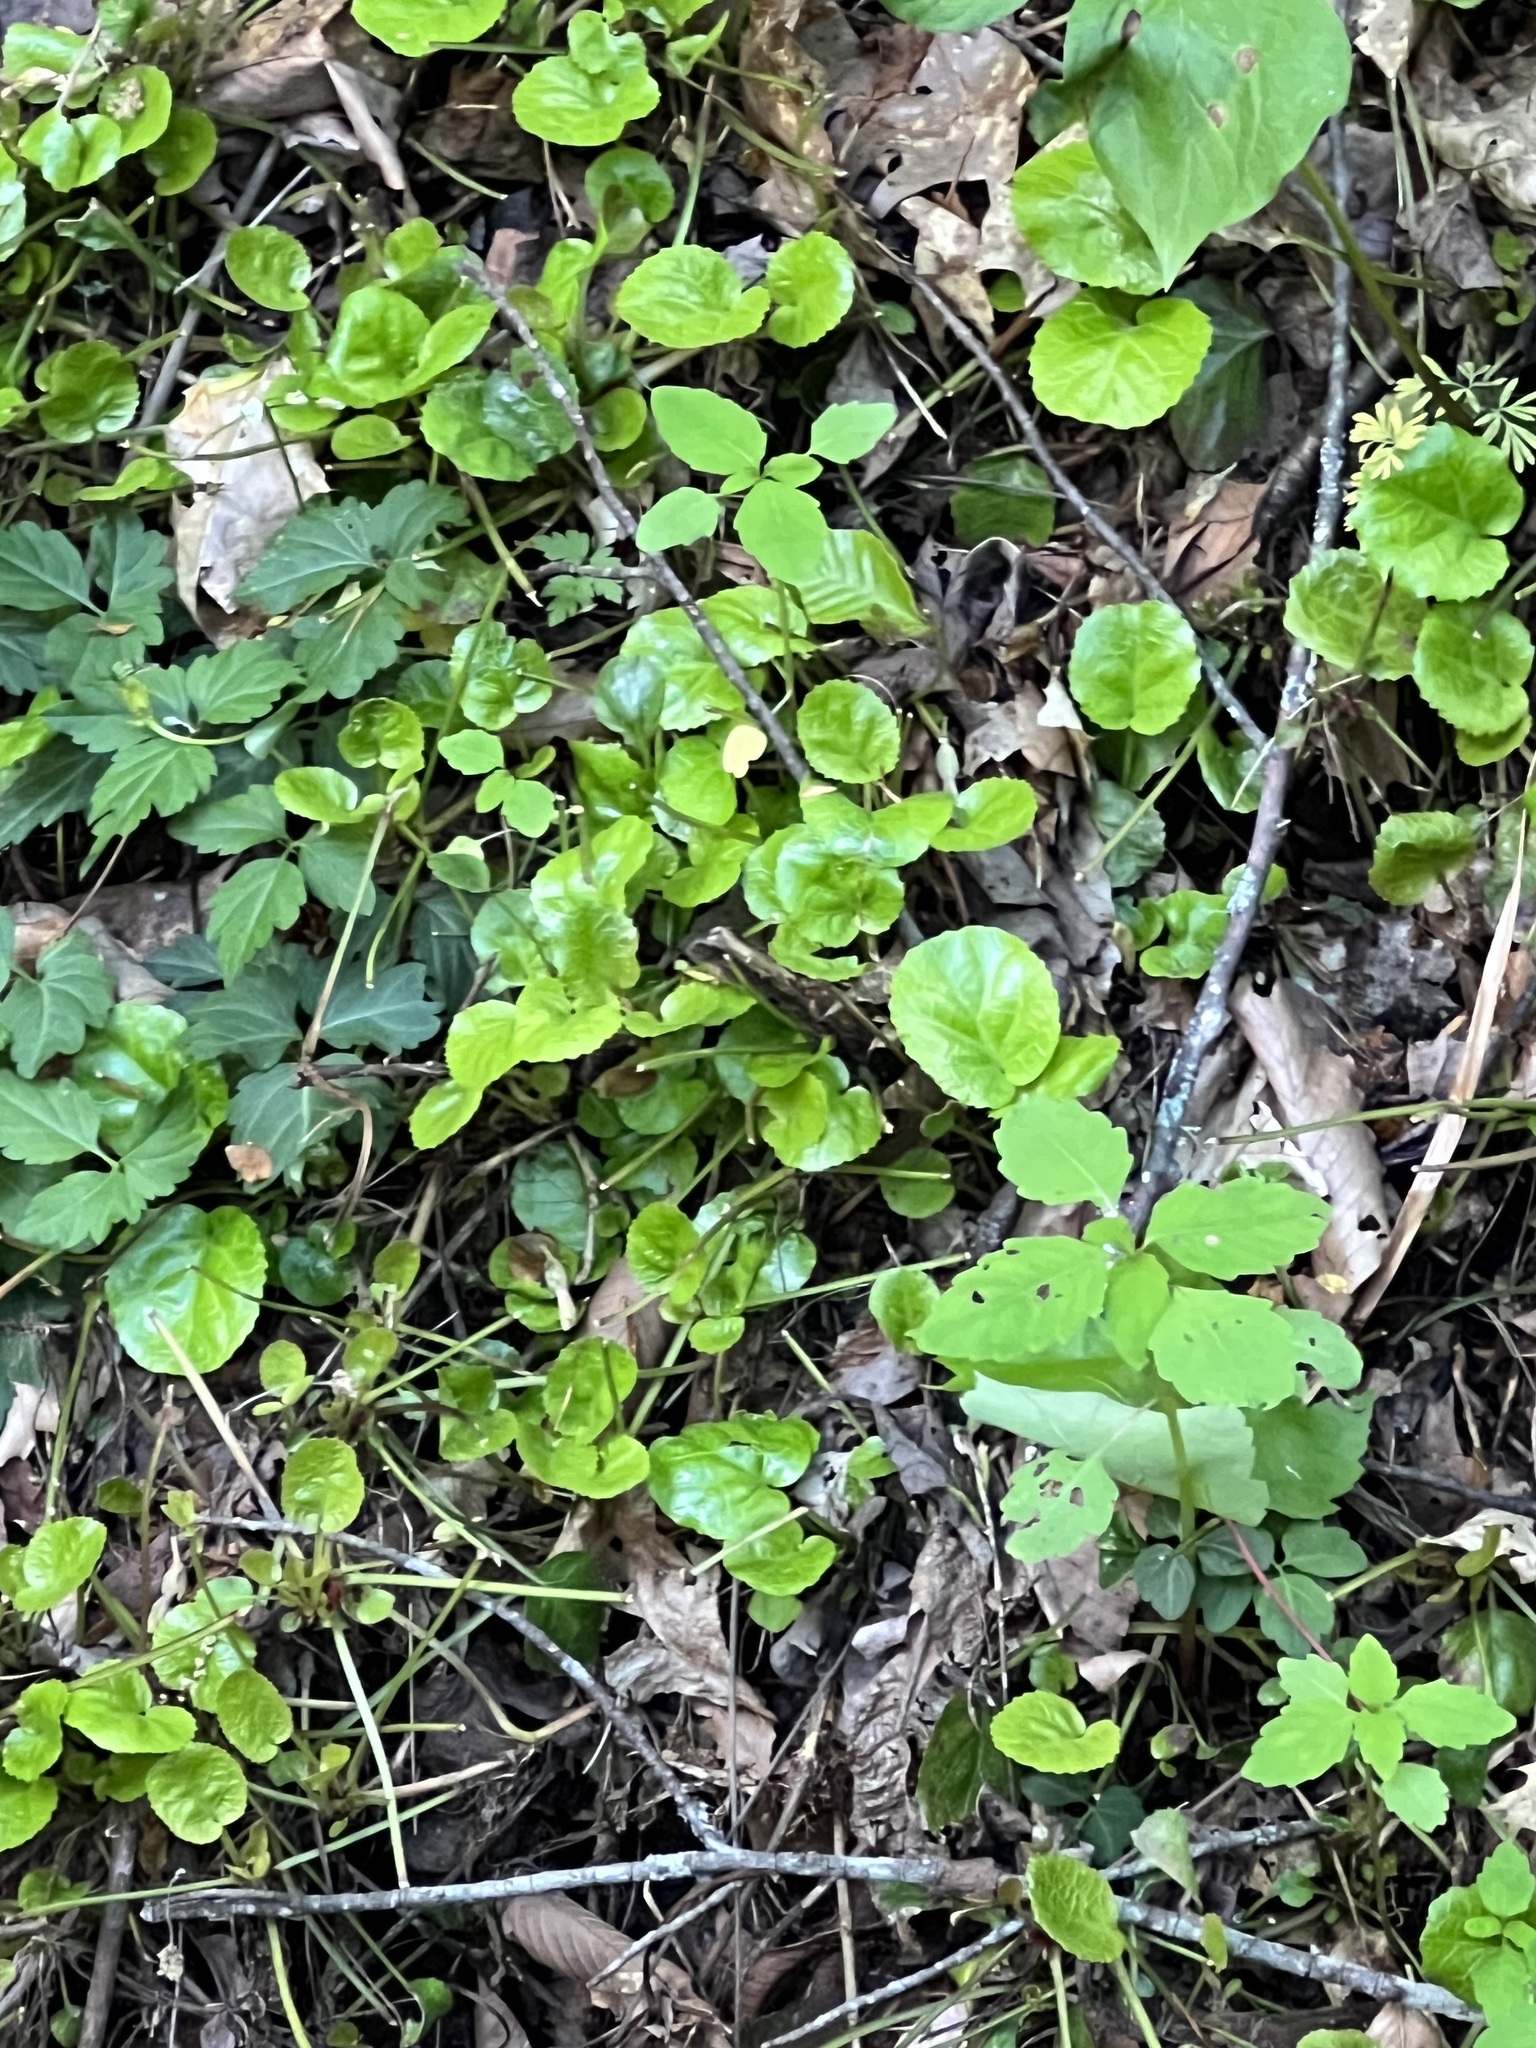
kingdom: Plantae
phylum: Tracheophyta
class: Magnoliopsida
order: Ericales
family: Diapensiaceae
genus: Shortia
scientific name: Shortia galacifolia
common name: Shortia
